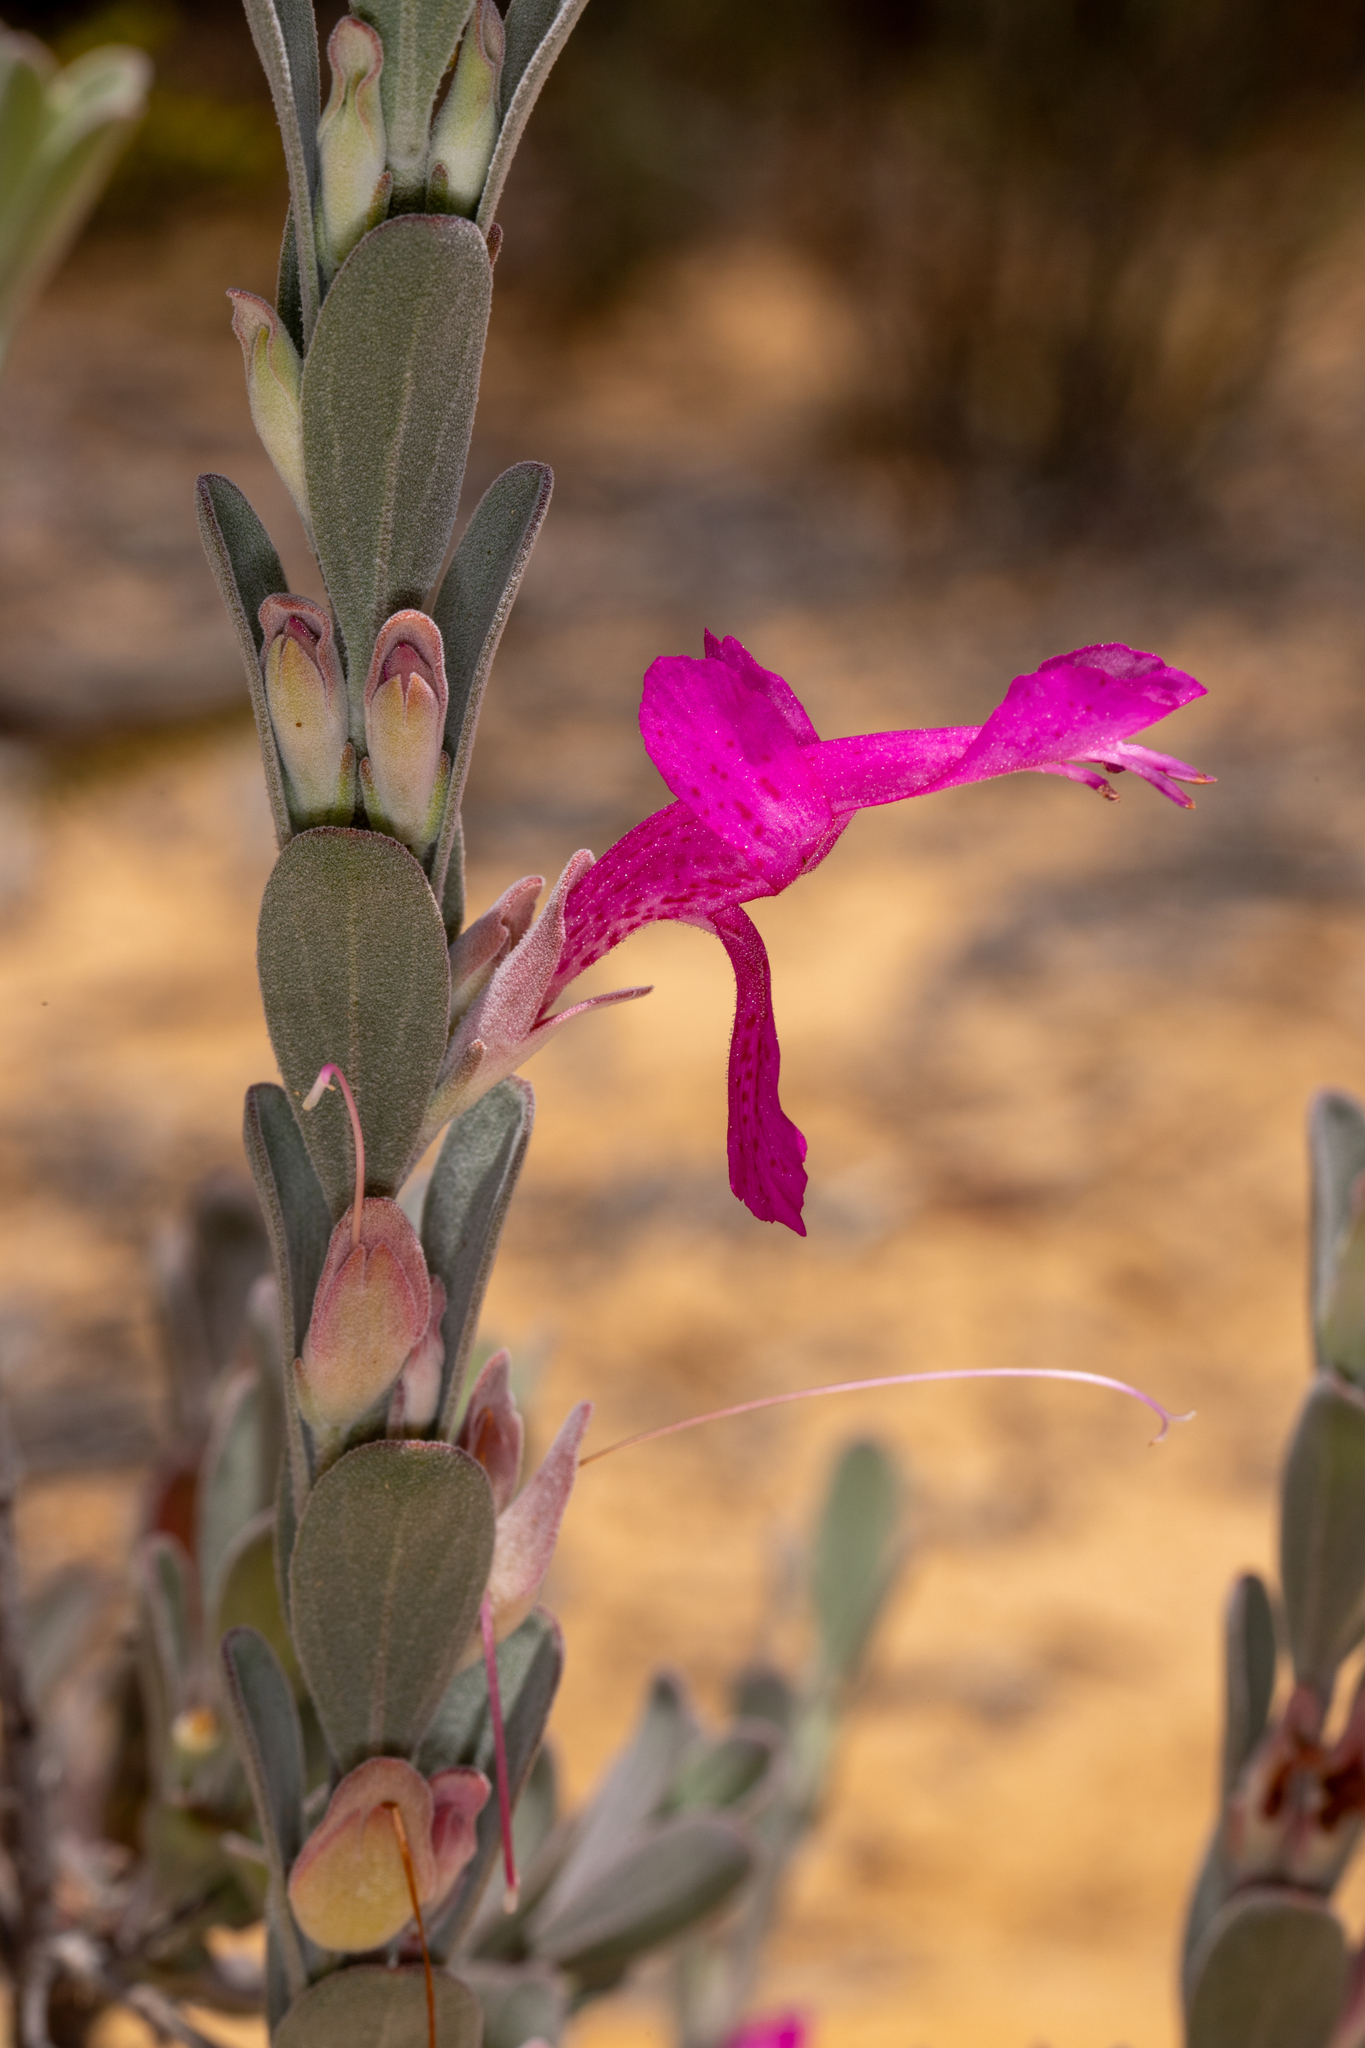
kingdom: Plantae
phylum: Tracheophyta
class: Magnoliopsida
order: Lamiales
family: Lamiaceae
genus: Hemigenia
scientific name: Hemigenia macrantha
